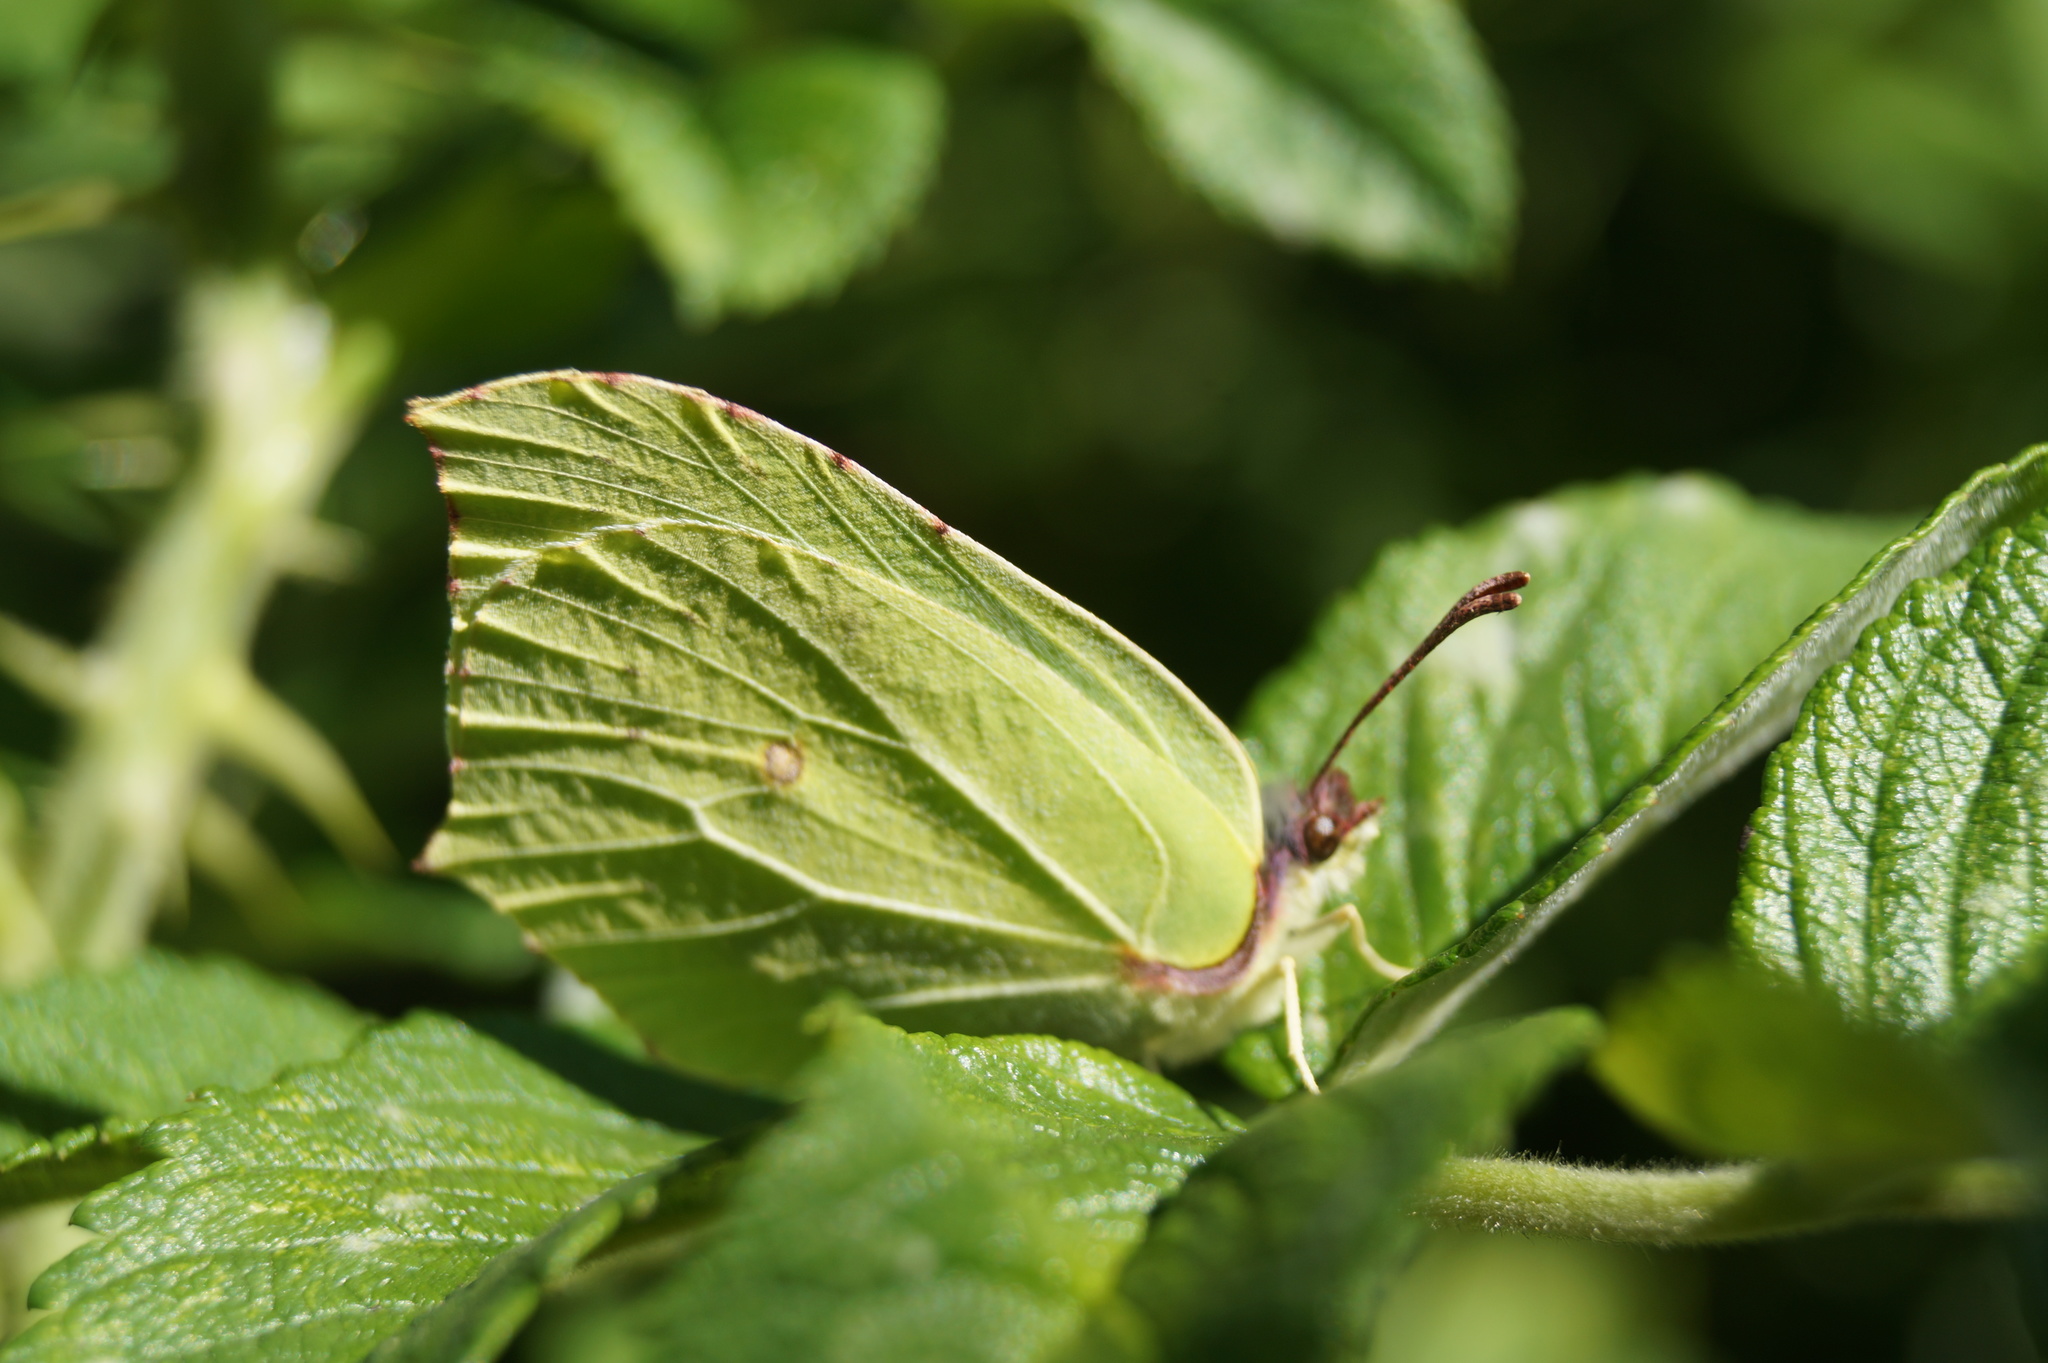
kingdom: Animalia
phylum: Arthropoda
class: Insecta
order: Lepidoptera
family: Pieridae
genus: Gonepteryx
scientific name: Gonepteryx rhamni
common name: Brimstone
